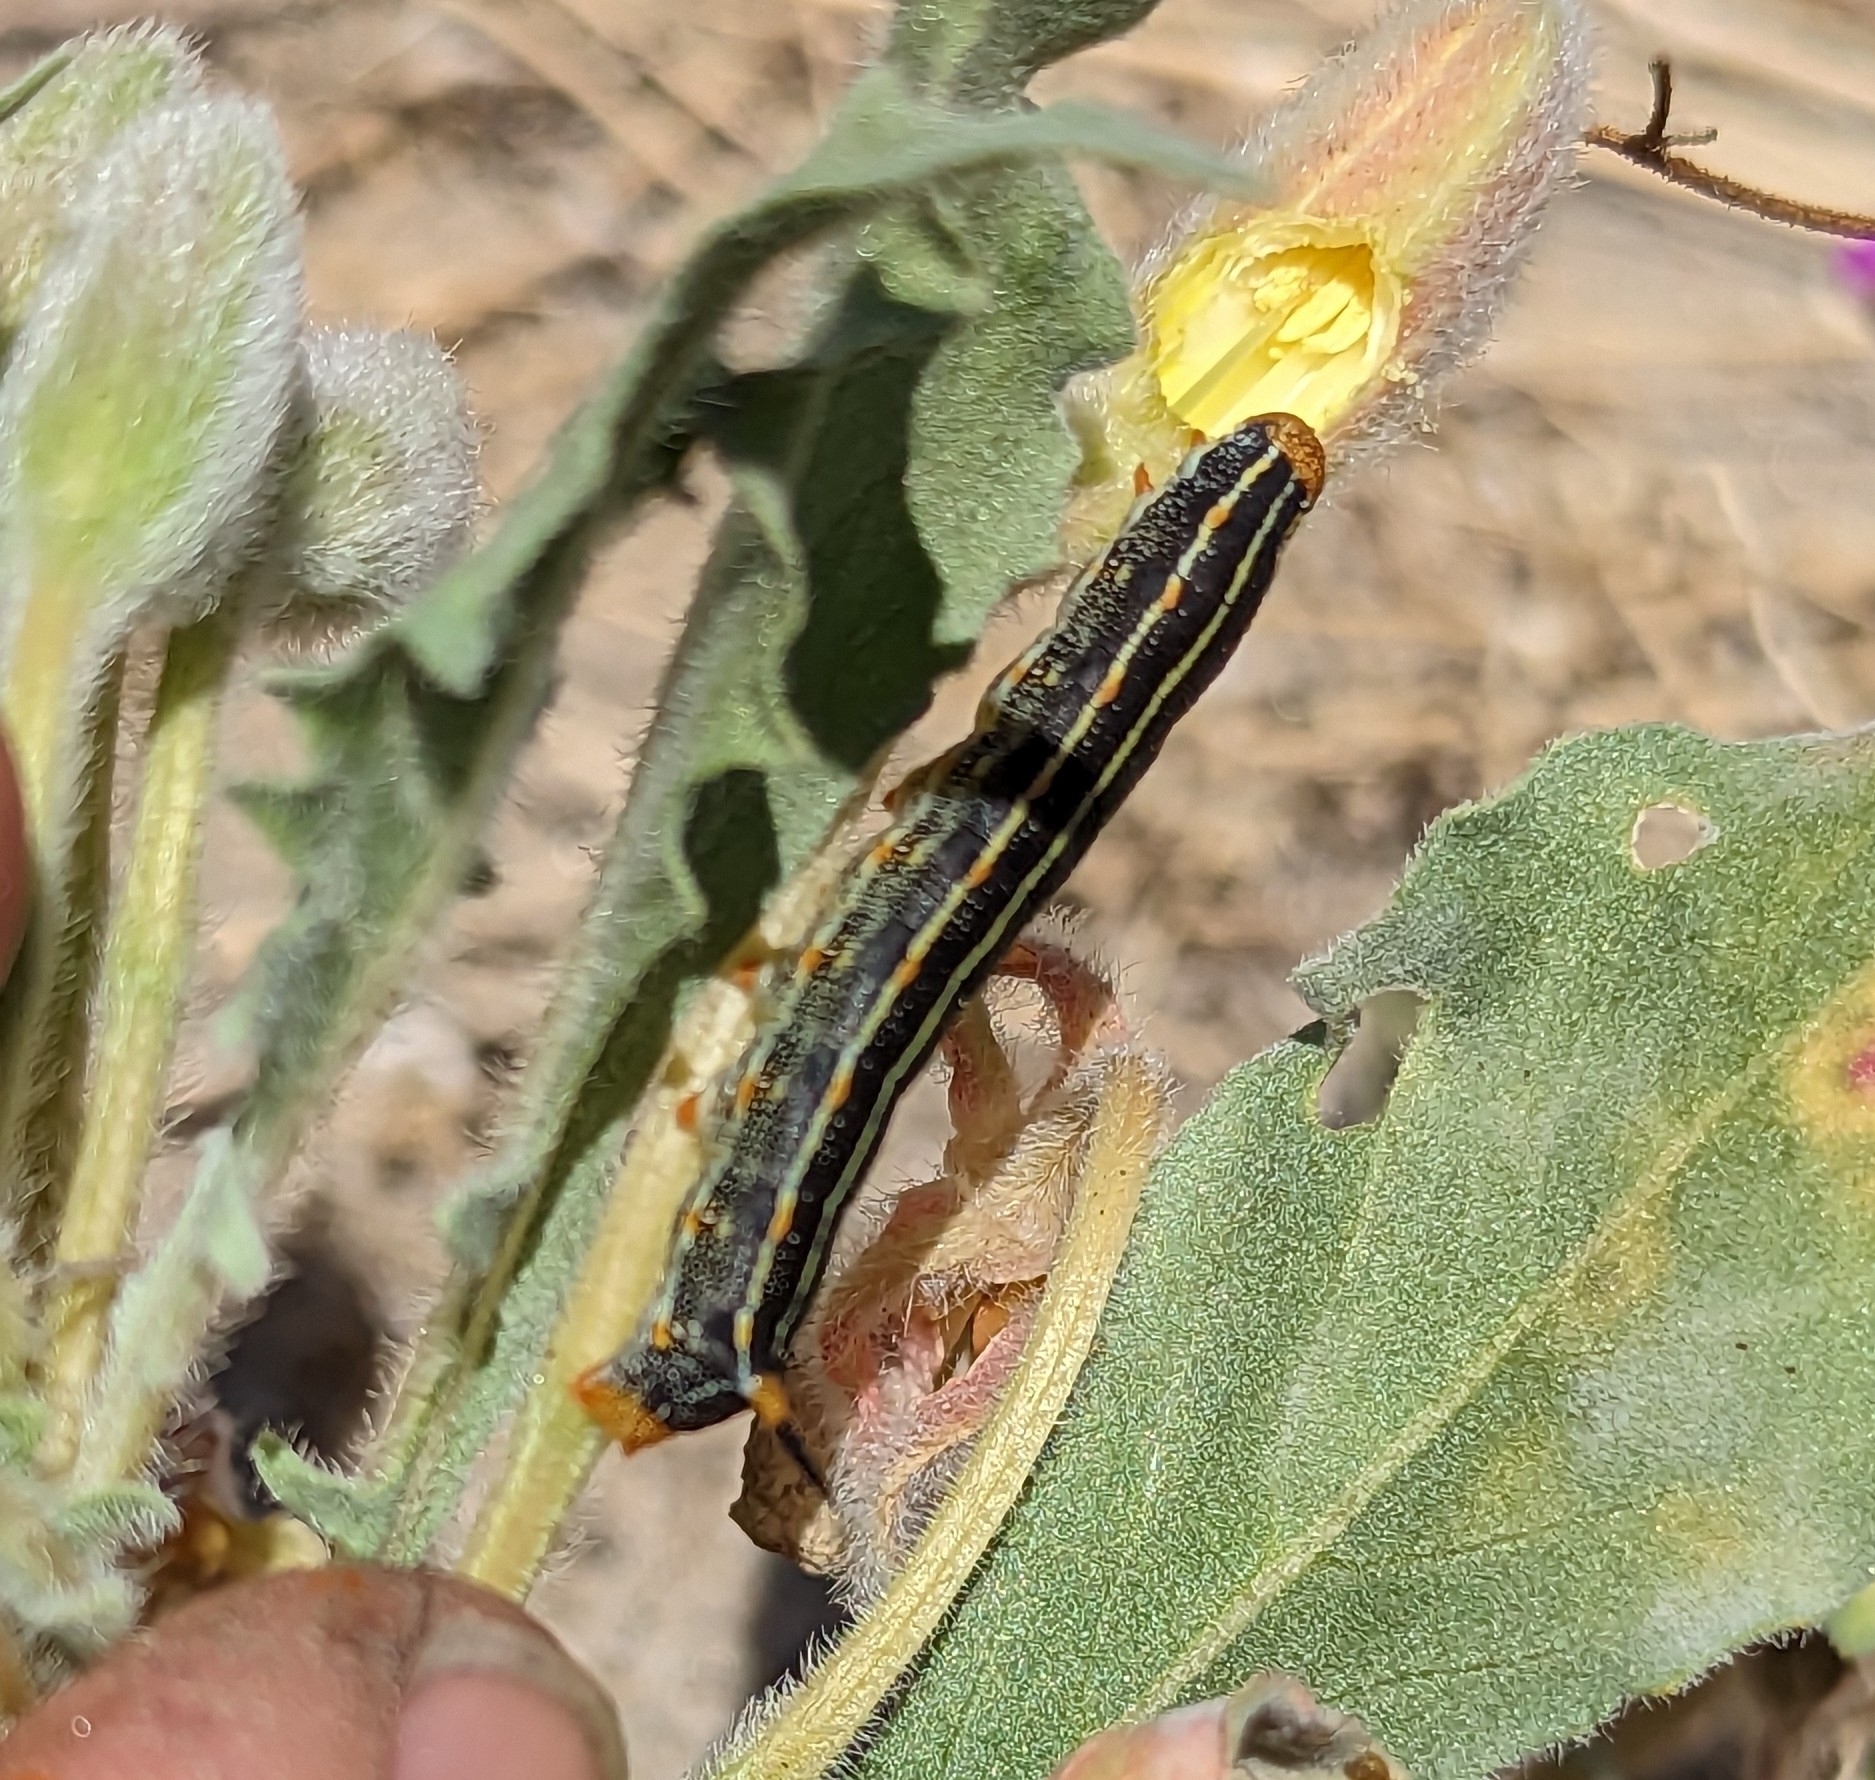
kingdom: Animalia
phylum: Arthropoda
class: Insecta
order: Lepidoptera
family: Sphingidae
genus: Hyles
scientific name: Hyles lineata
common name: White-lined sphinx
